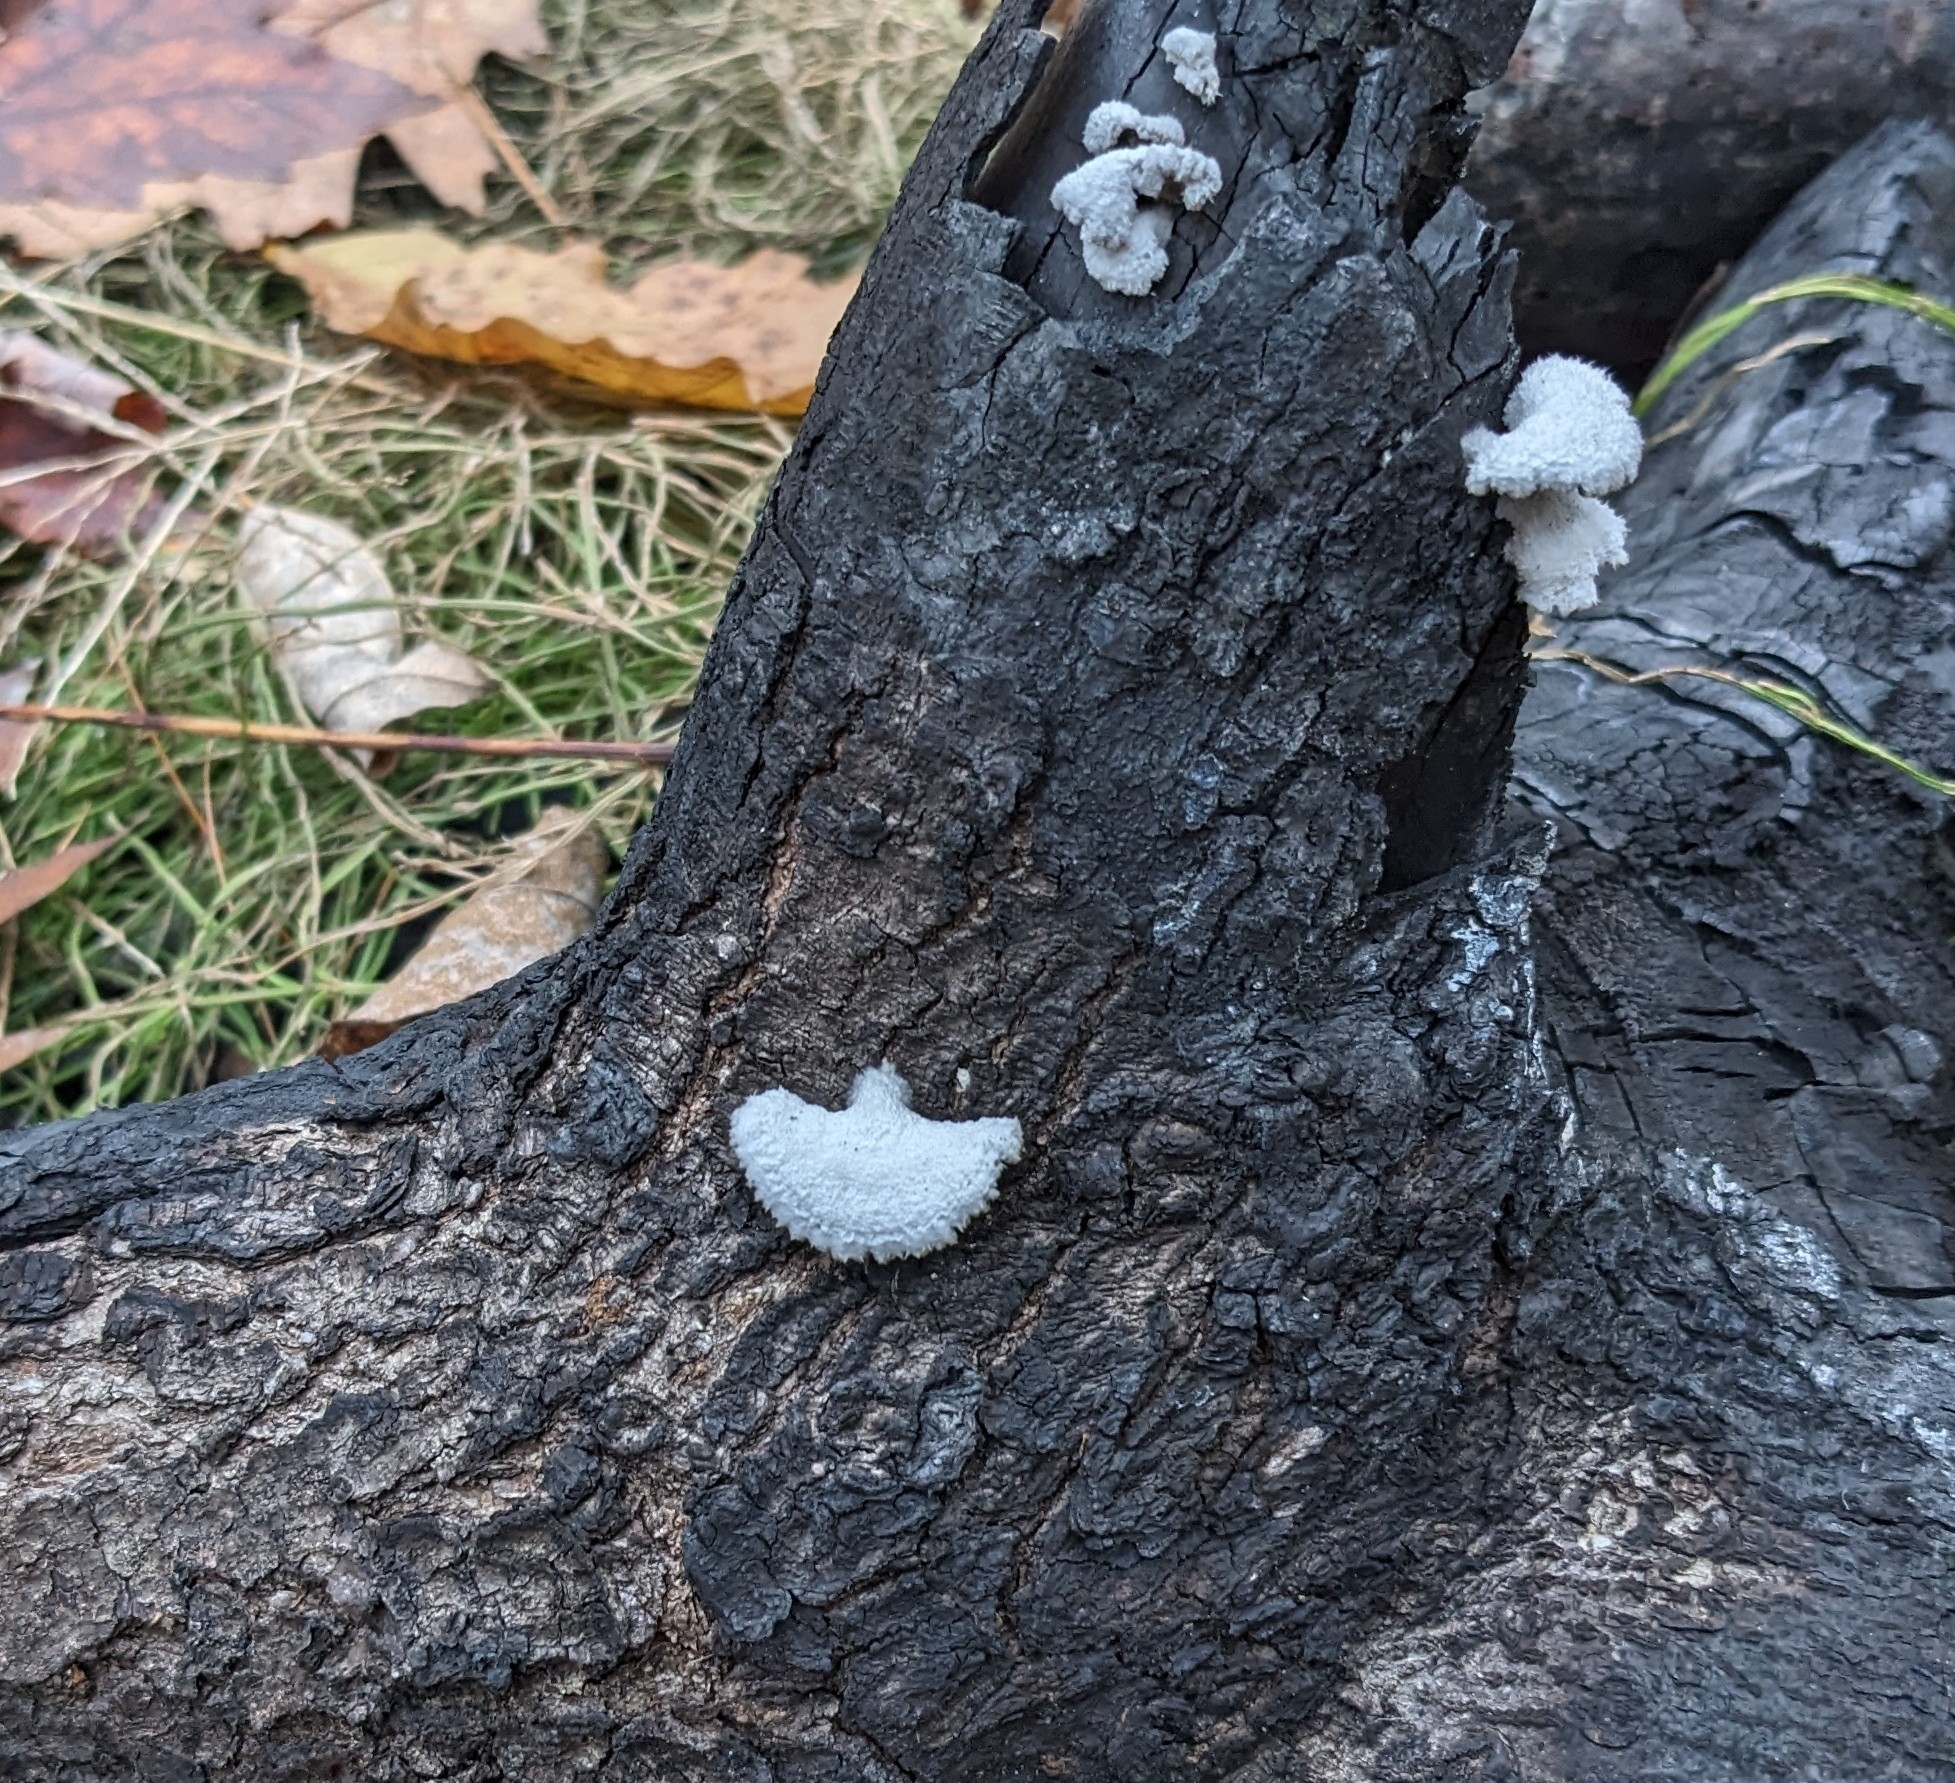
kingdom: Fungi
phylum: Basidiomycota
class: Agaricomycetes
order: Agaricales
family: Schizophyllaceae
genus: Schizophyllum
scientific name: Schizophyllum commune
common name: Common porecrust
